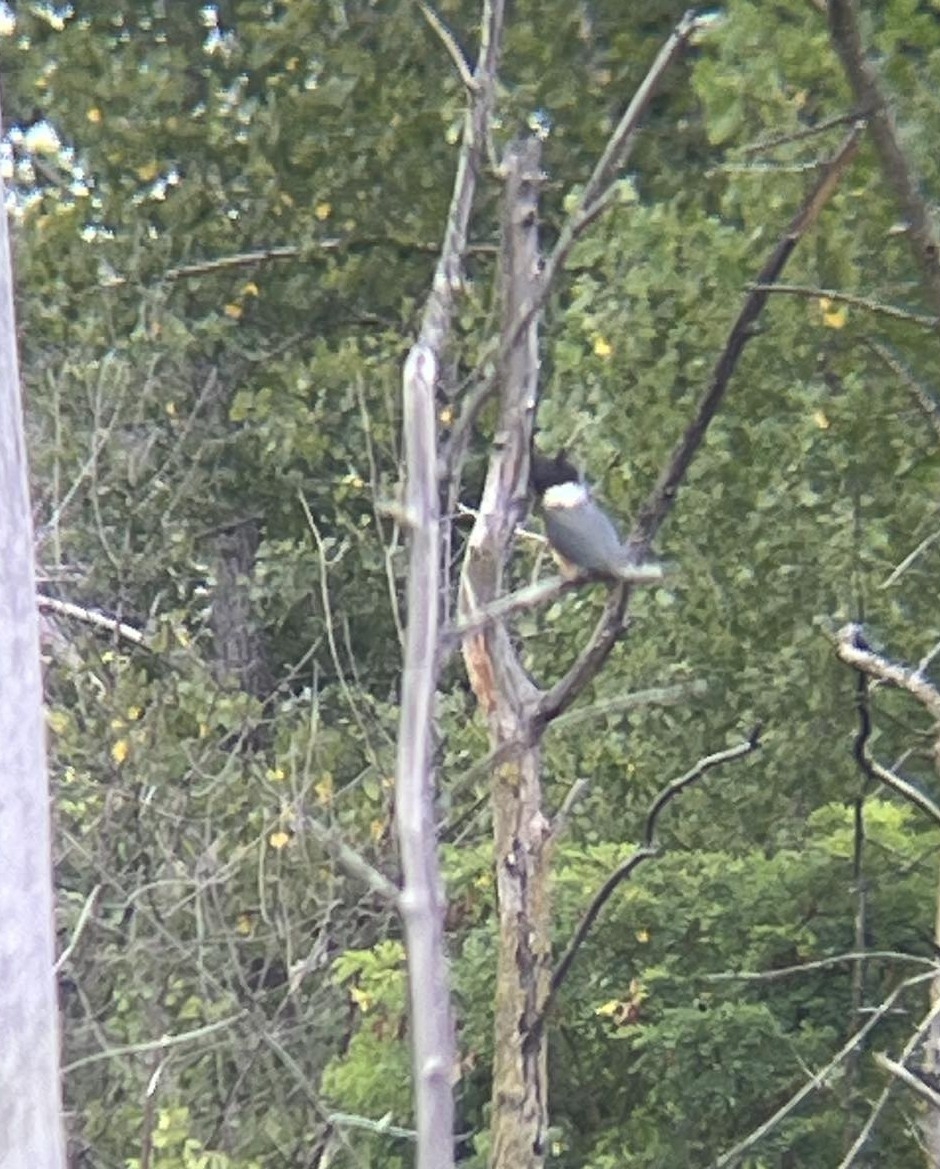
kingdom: Animalia
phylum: Chordata
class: Aves
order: Coraciiformes
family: Alcedinidae
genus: Megaceryle
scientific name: Megaceryle alcyon
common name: Belted kingfisher
